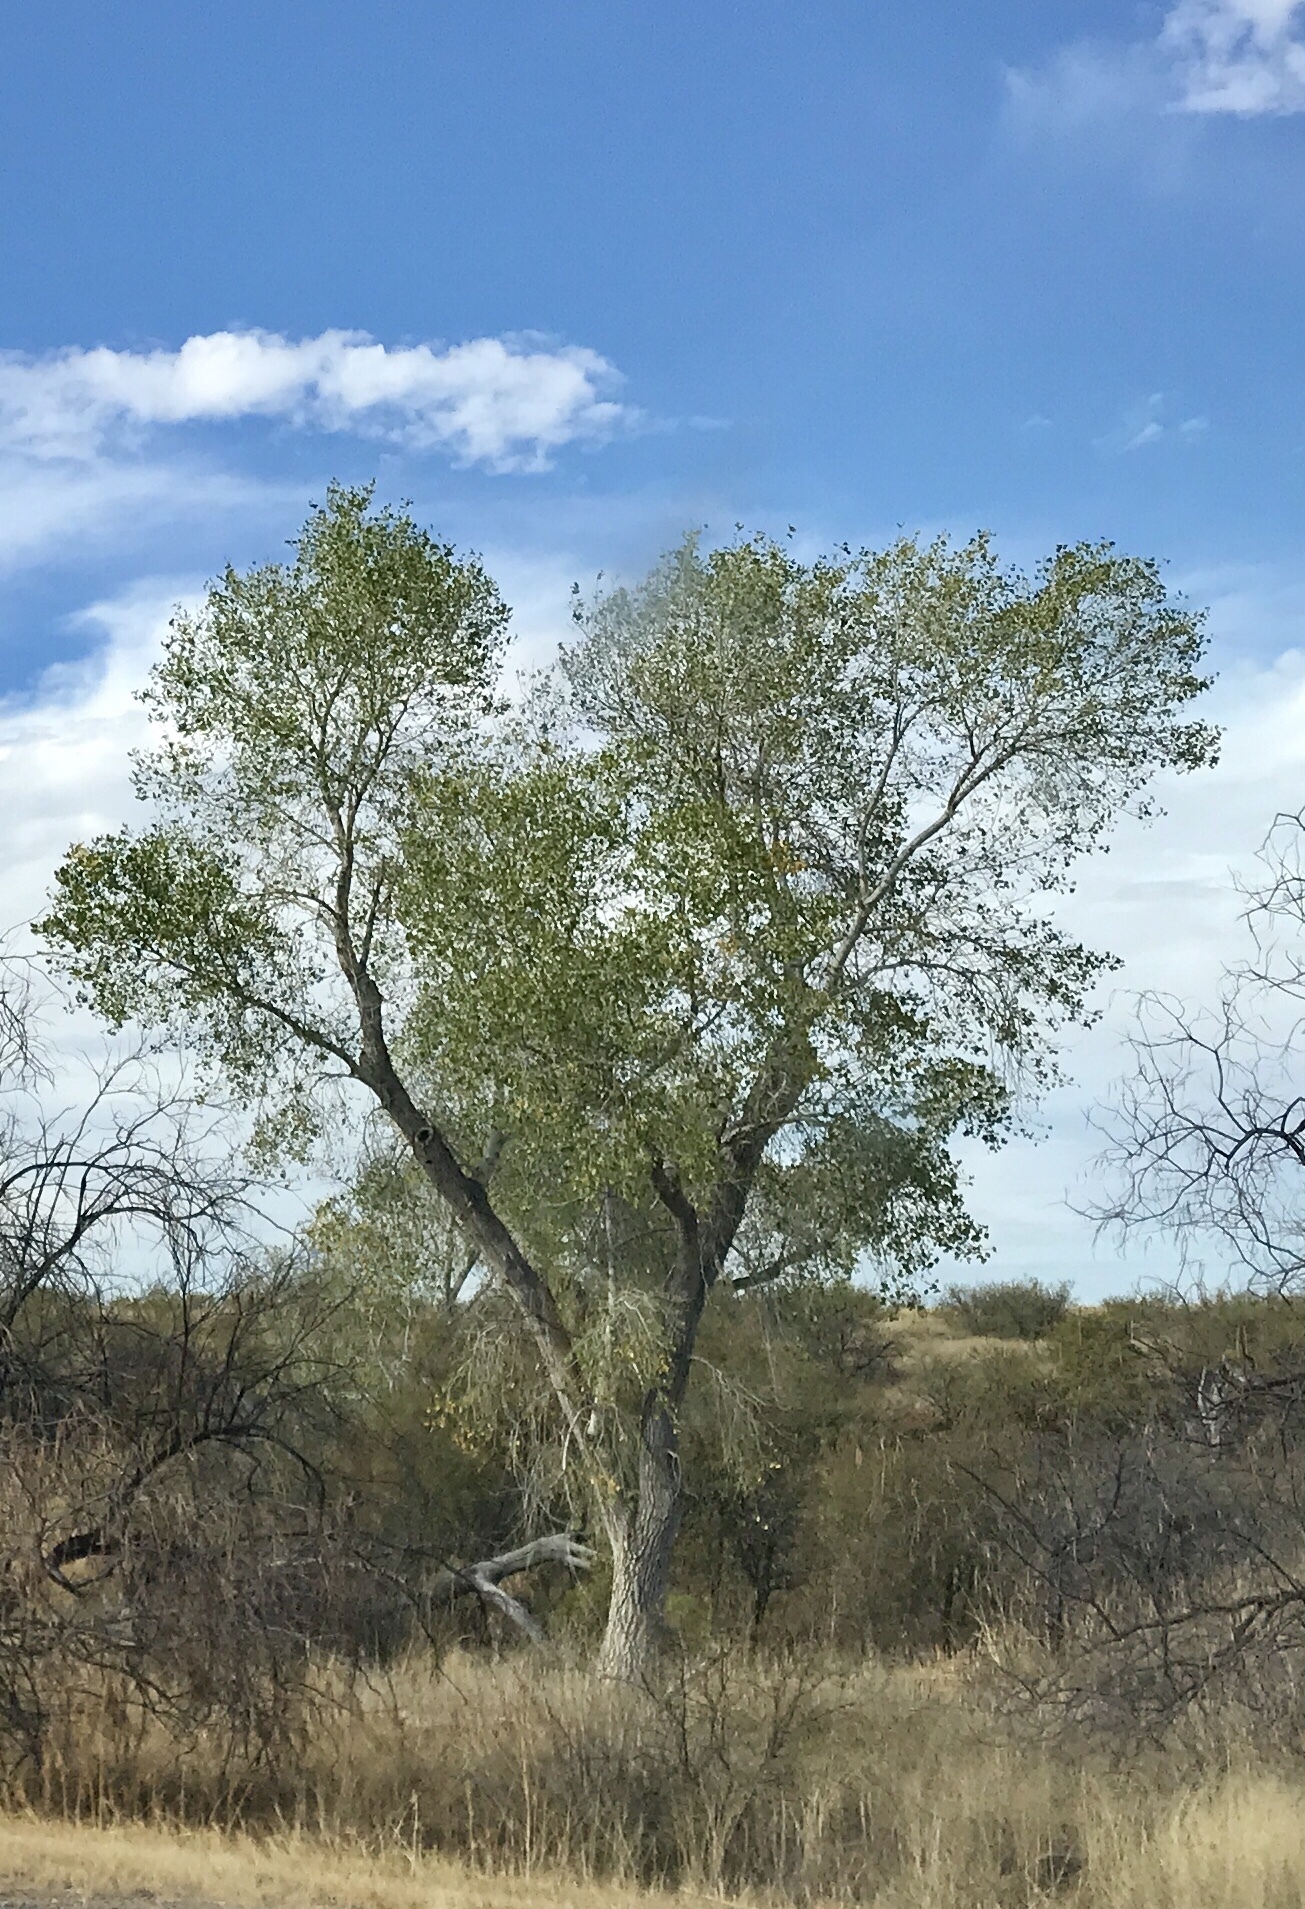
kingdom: Plantae
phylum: Tracheophyta
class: Magnoliopsida
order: Malpighiales
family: Salicaceae
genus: Populus
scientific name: Populus fremontii
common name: Fremont's cottonwood
